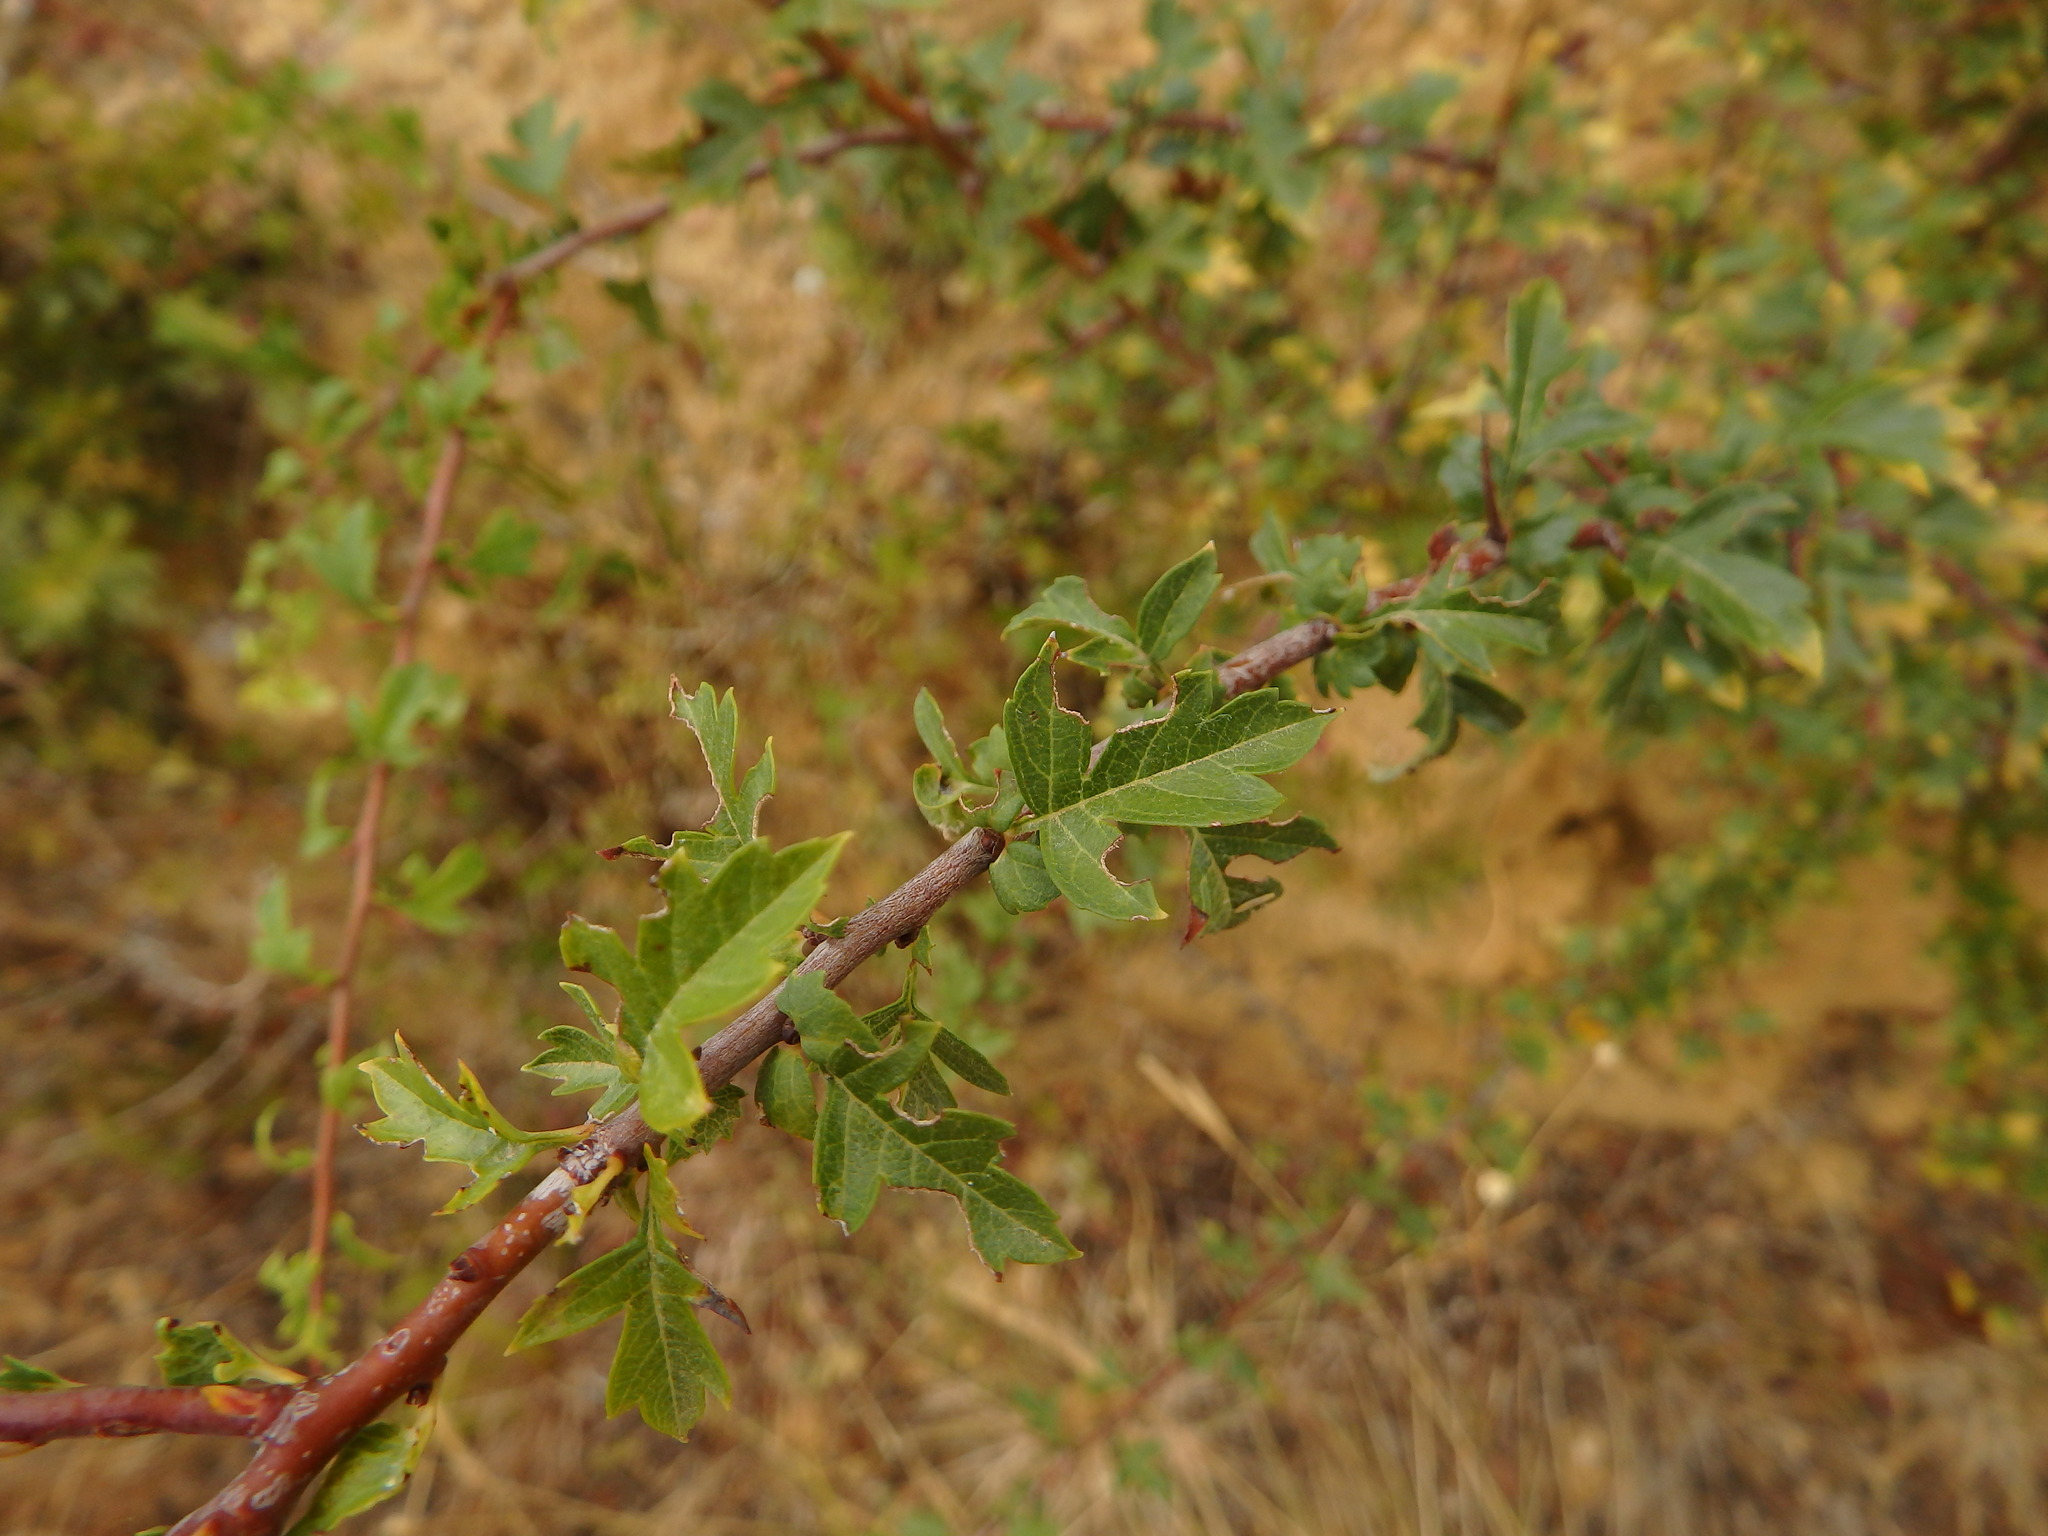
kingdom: Plantae
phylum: Tracheophyta
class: Magnoliopsida
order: Rosales
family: Rosaceae
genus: Crataegus
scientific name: Crataegus monogyna
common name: Hawthorn
